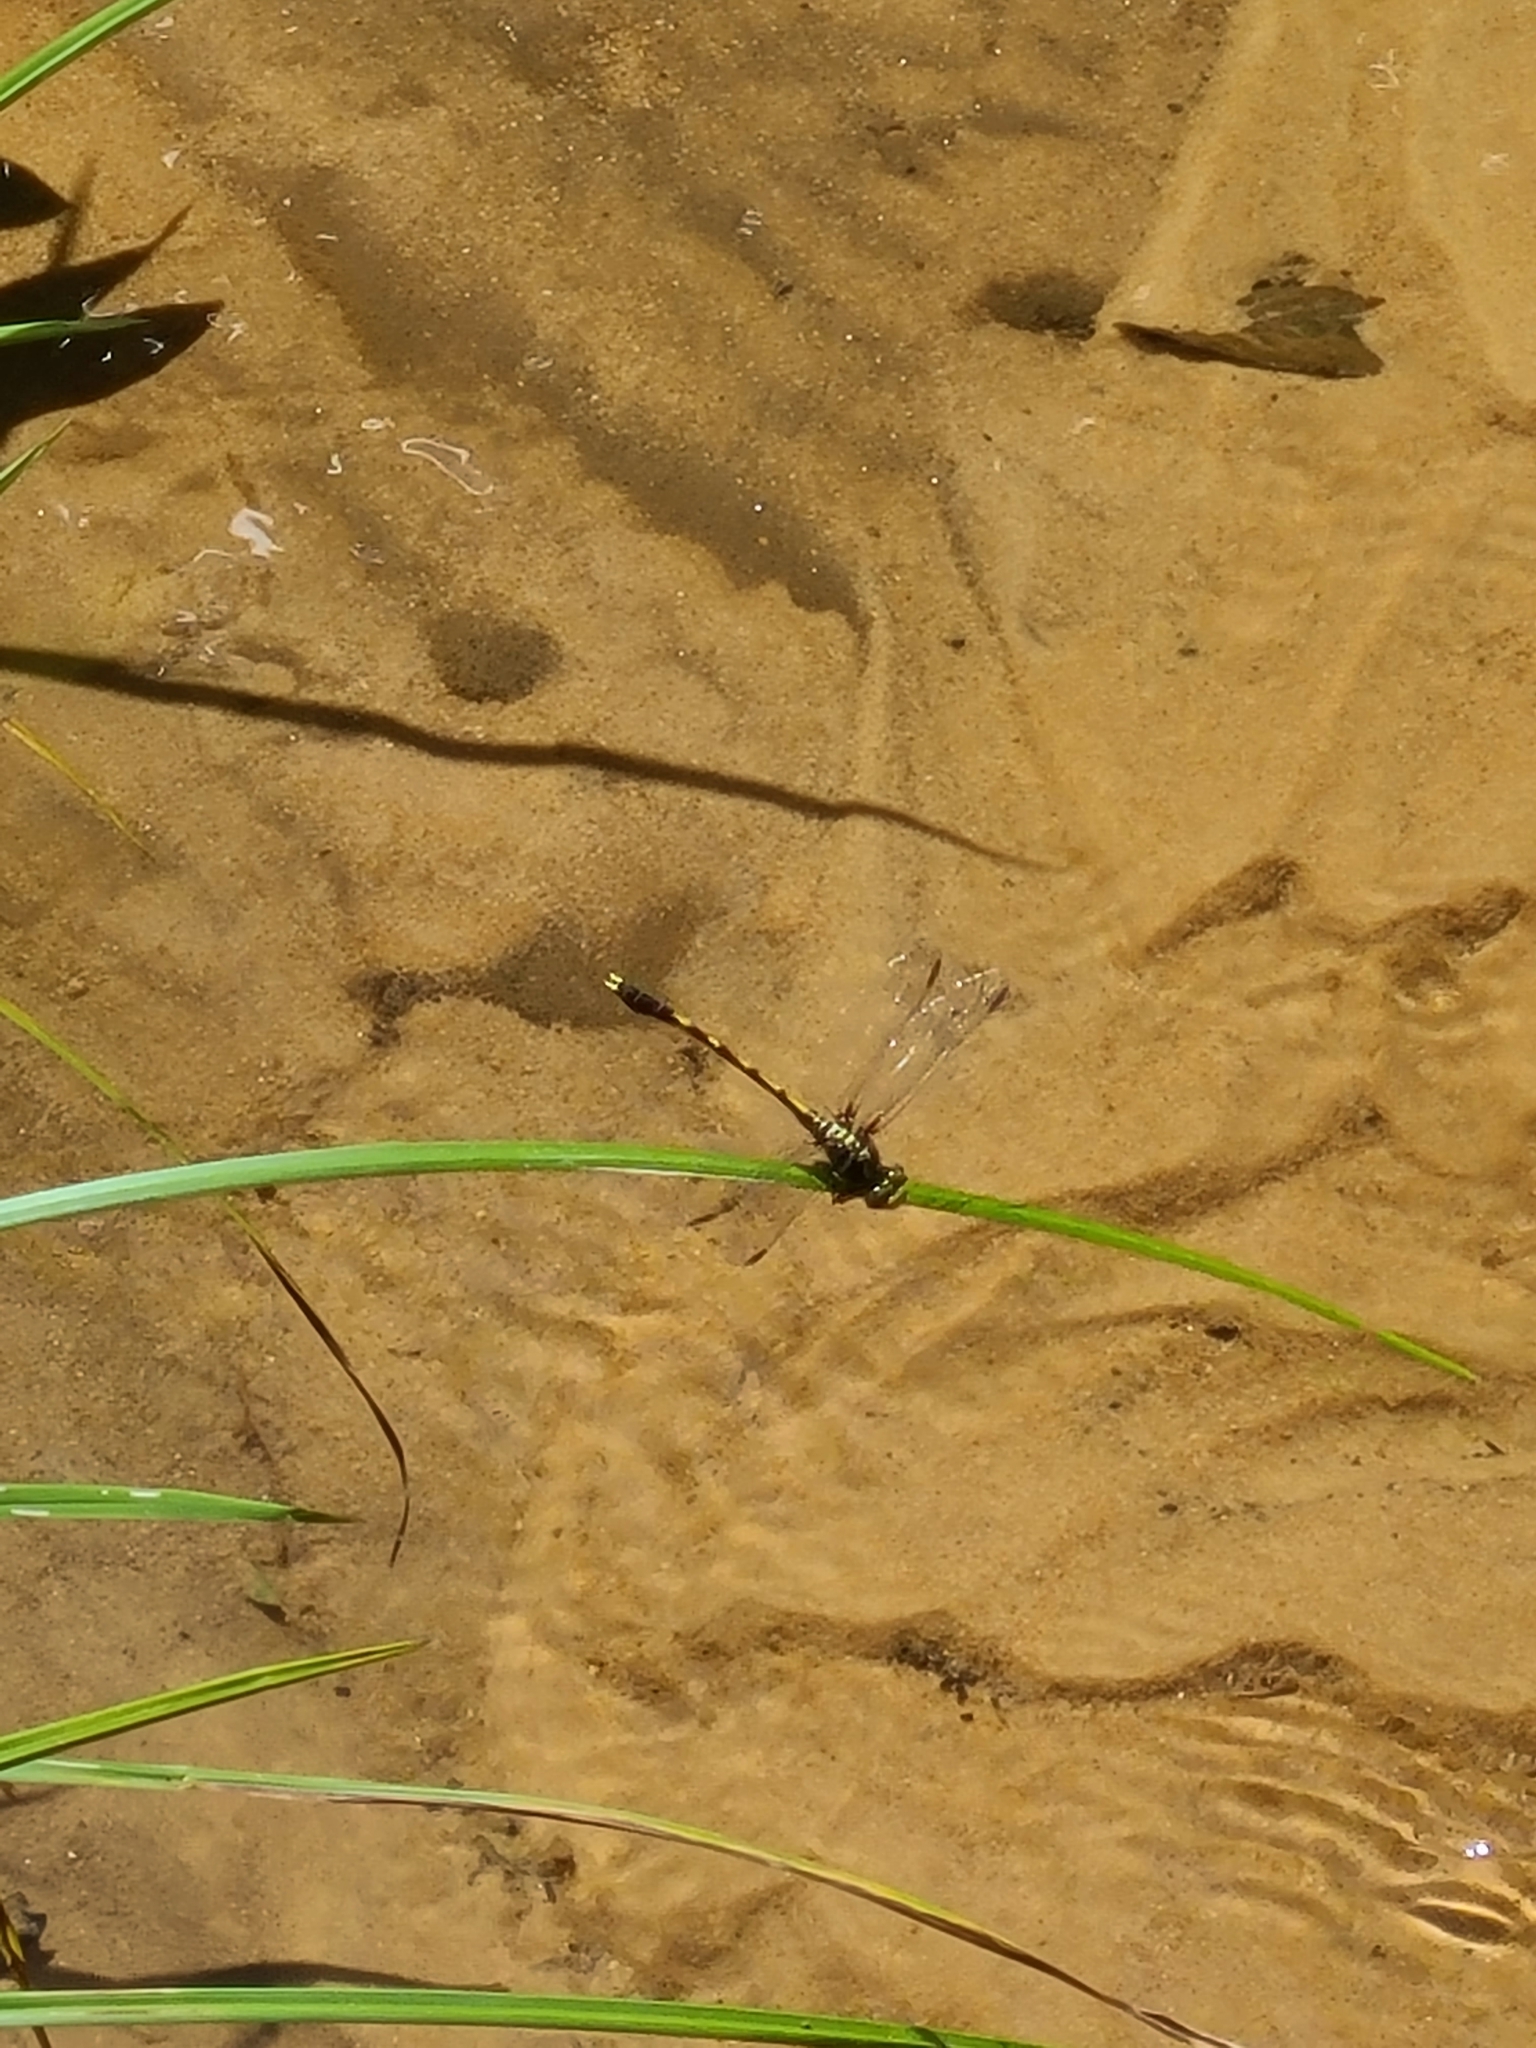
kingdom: Animalia
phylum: Arthropoda
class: Insecta
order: Odonata
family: Gomphidae
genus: Progomphus
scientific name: Progomphus obscurus
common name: Common sanddragon
